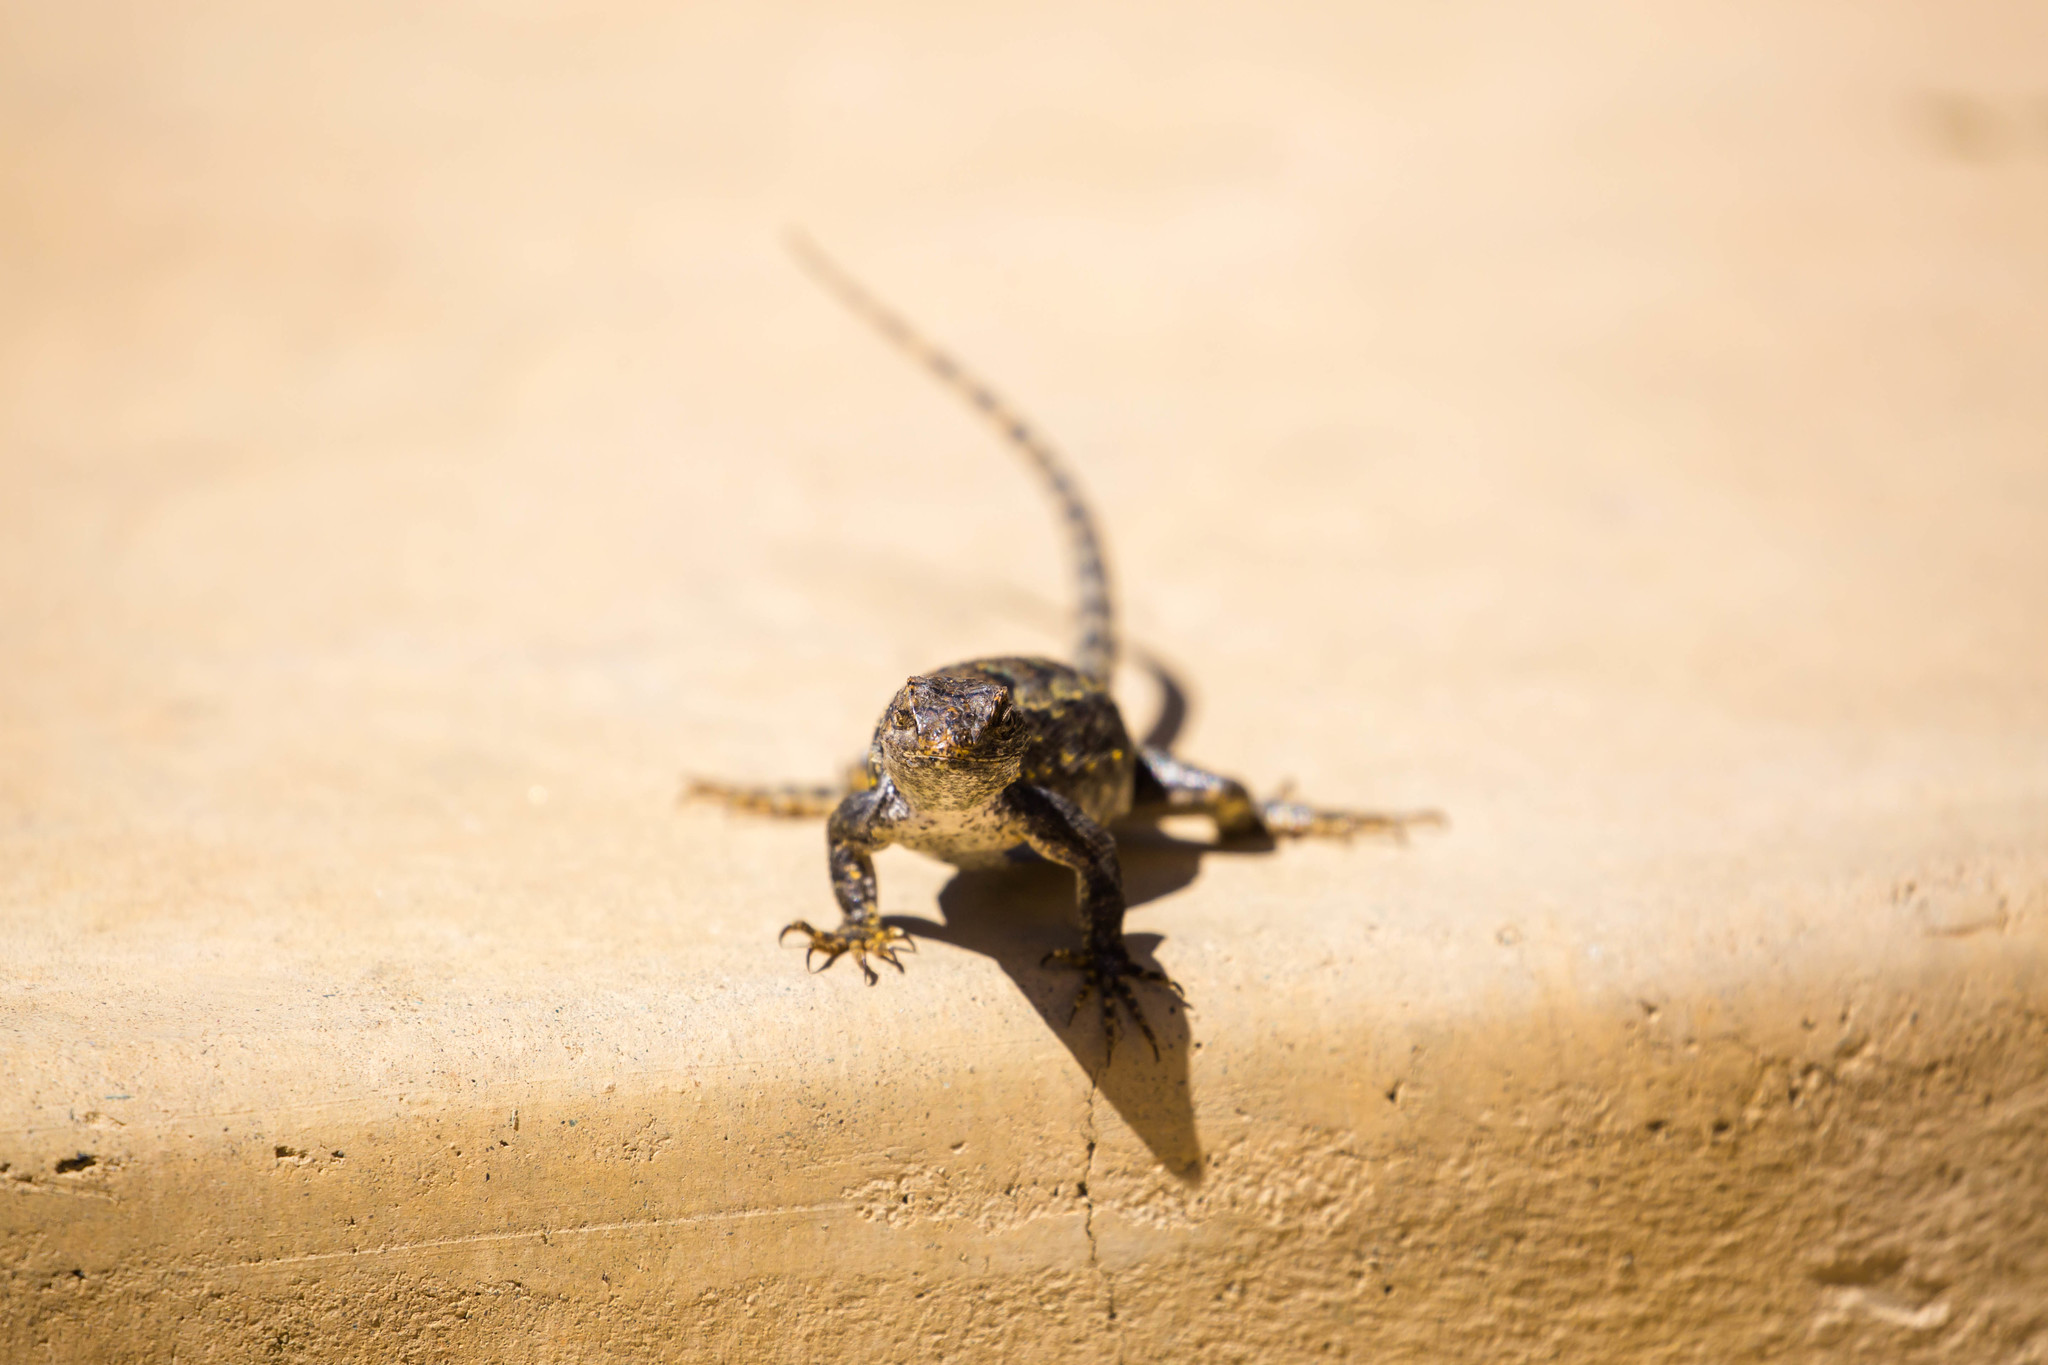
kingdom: Animalia
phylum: Chordata
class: Squamata
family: Phrynosomatidae
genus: Sceloporus
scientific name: Sceloporus occidentalis
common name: Western fence lizard
